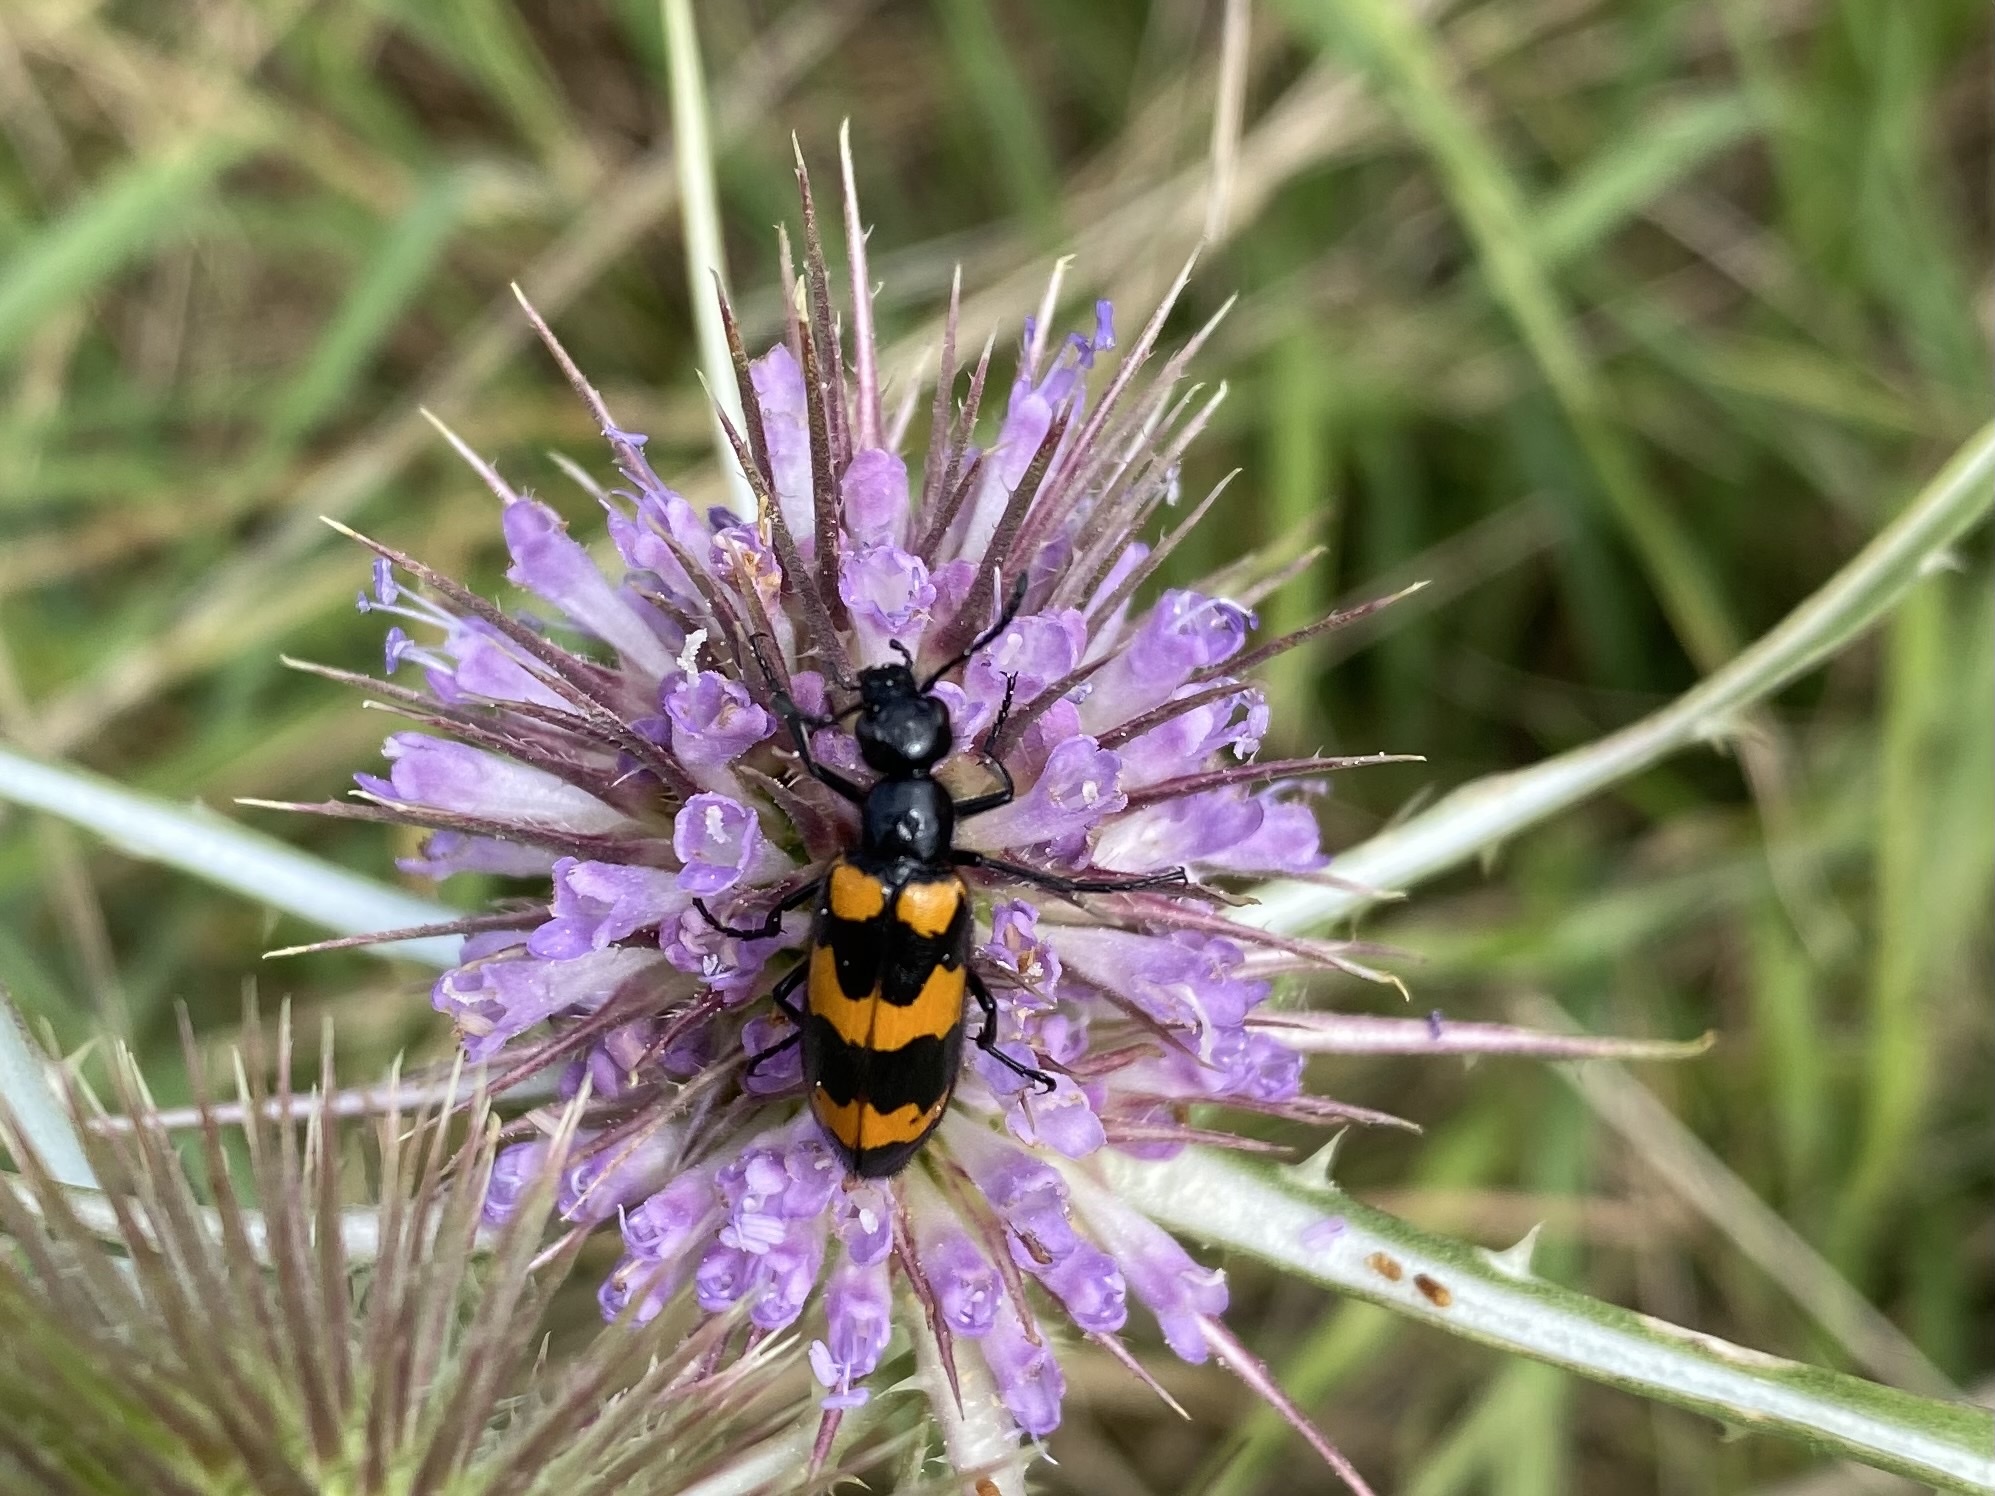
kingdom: Animalia
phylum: Arthropoda
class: Insecta
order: Coleoptera
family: Meloidae
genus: Mylabris
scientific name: Mylabris variabilis
